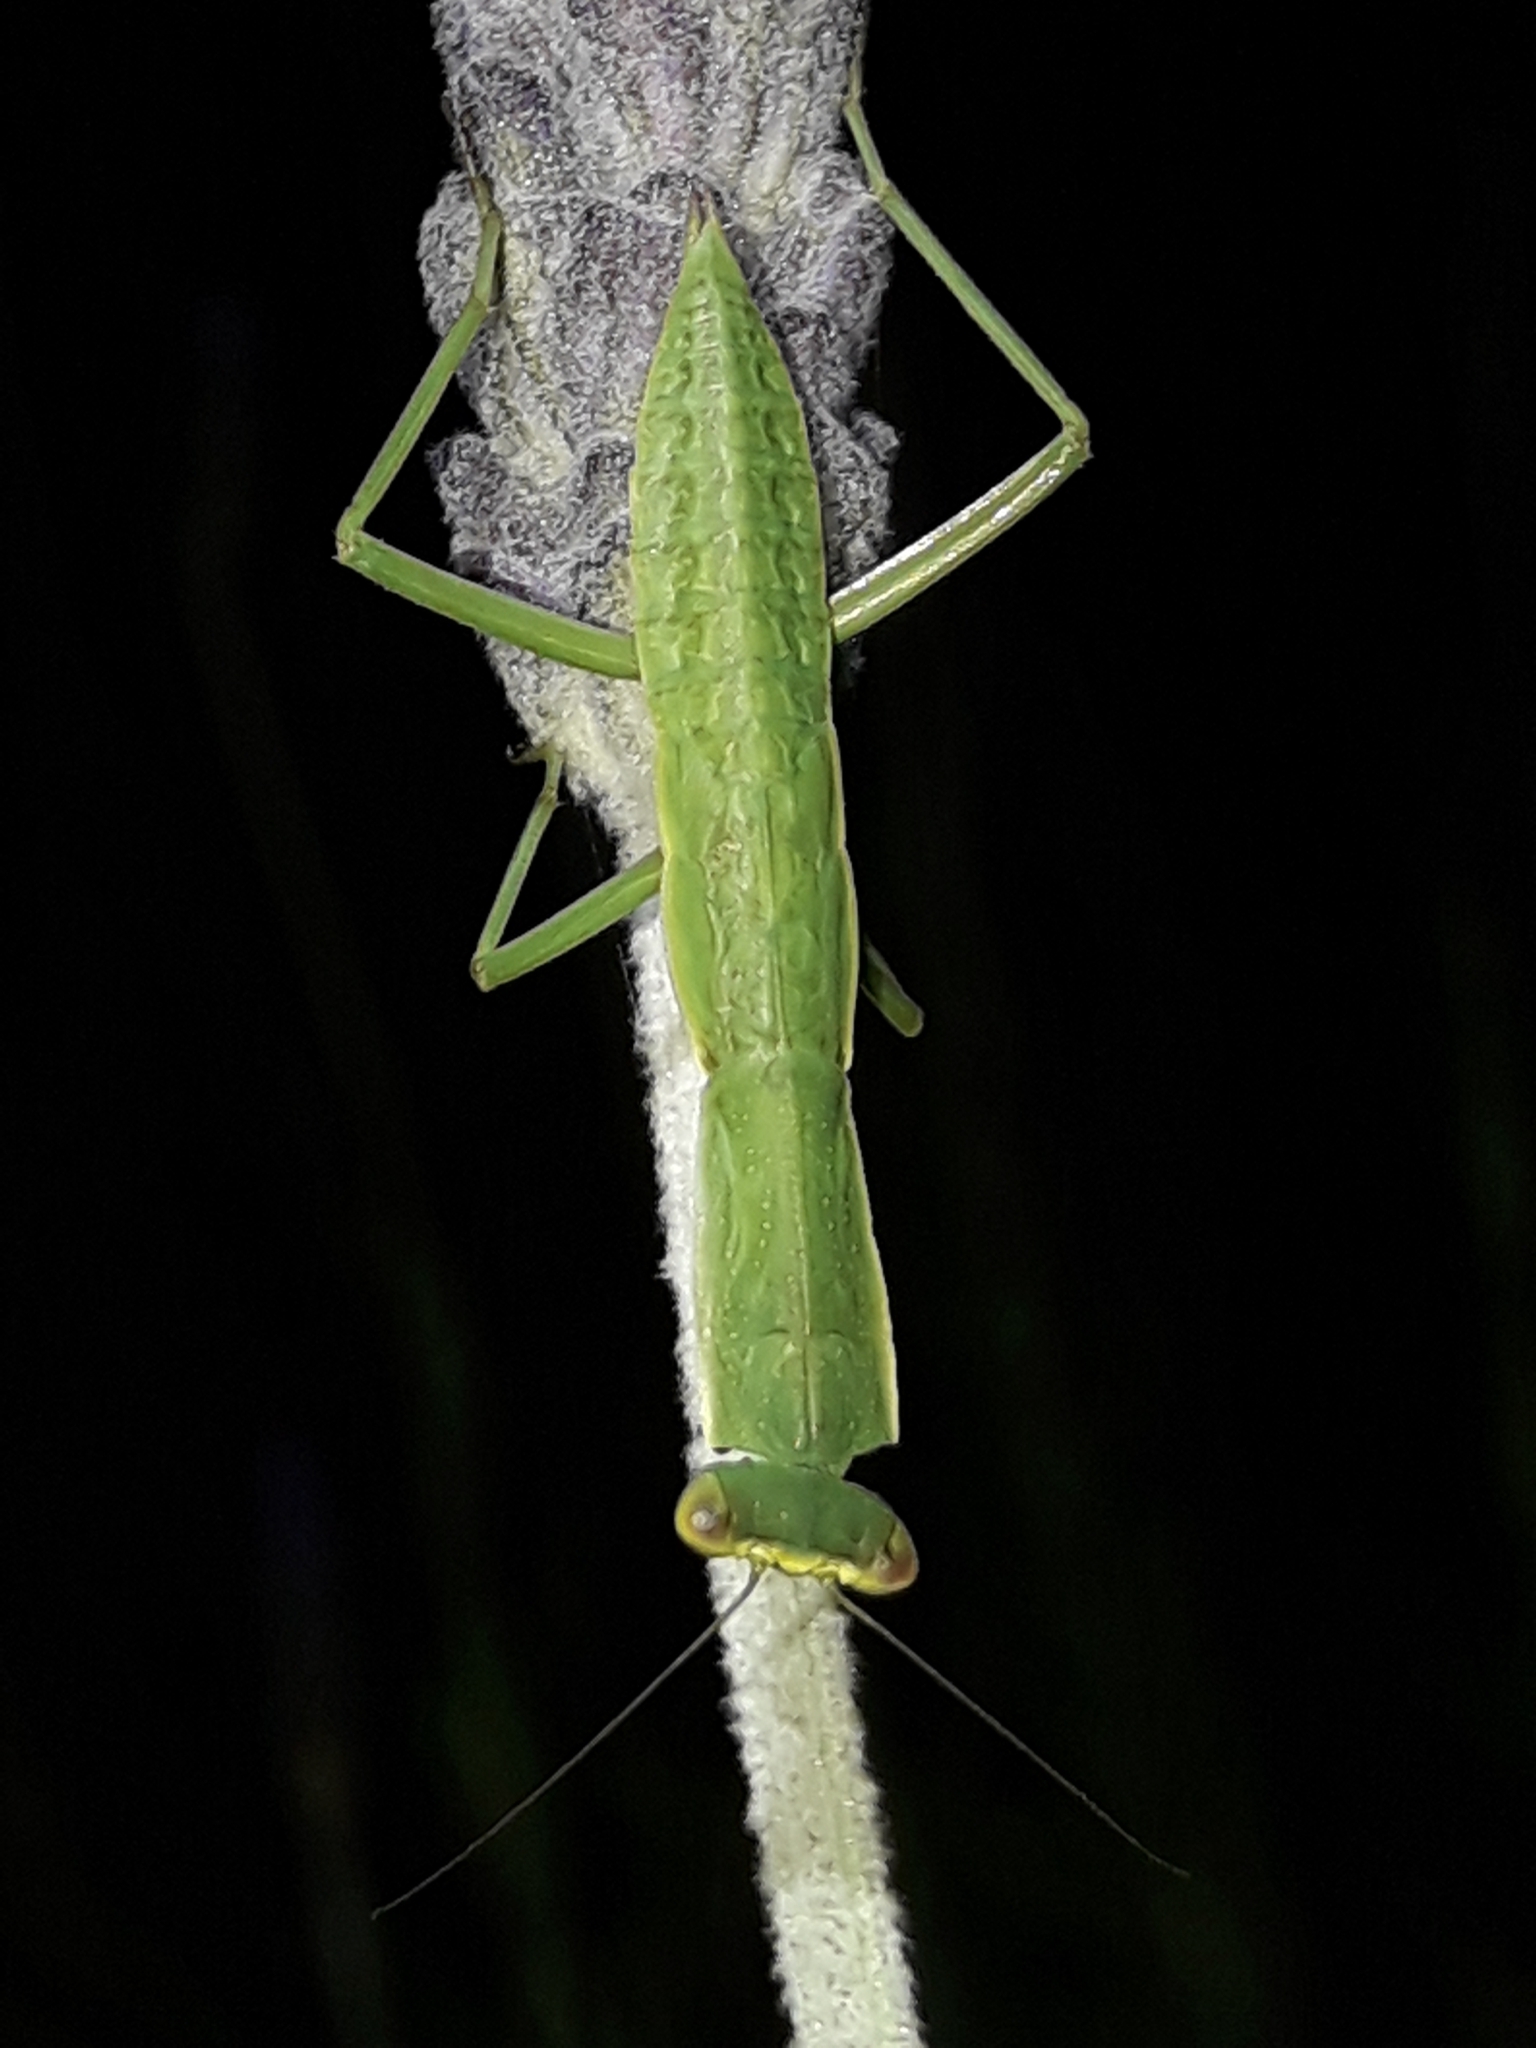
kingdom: Animalia
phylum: Arthropoda
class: Insecta
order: Mantodea
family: Mantidae
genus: Orthodera
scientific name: Orthodera novaezealandiae
